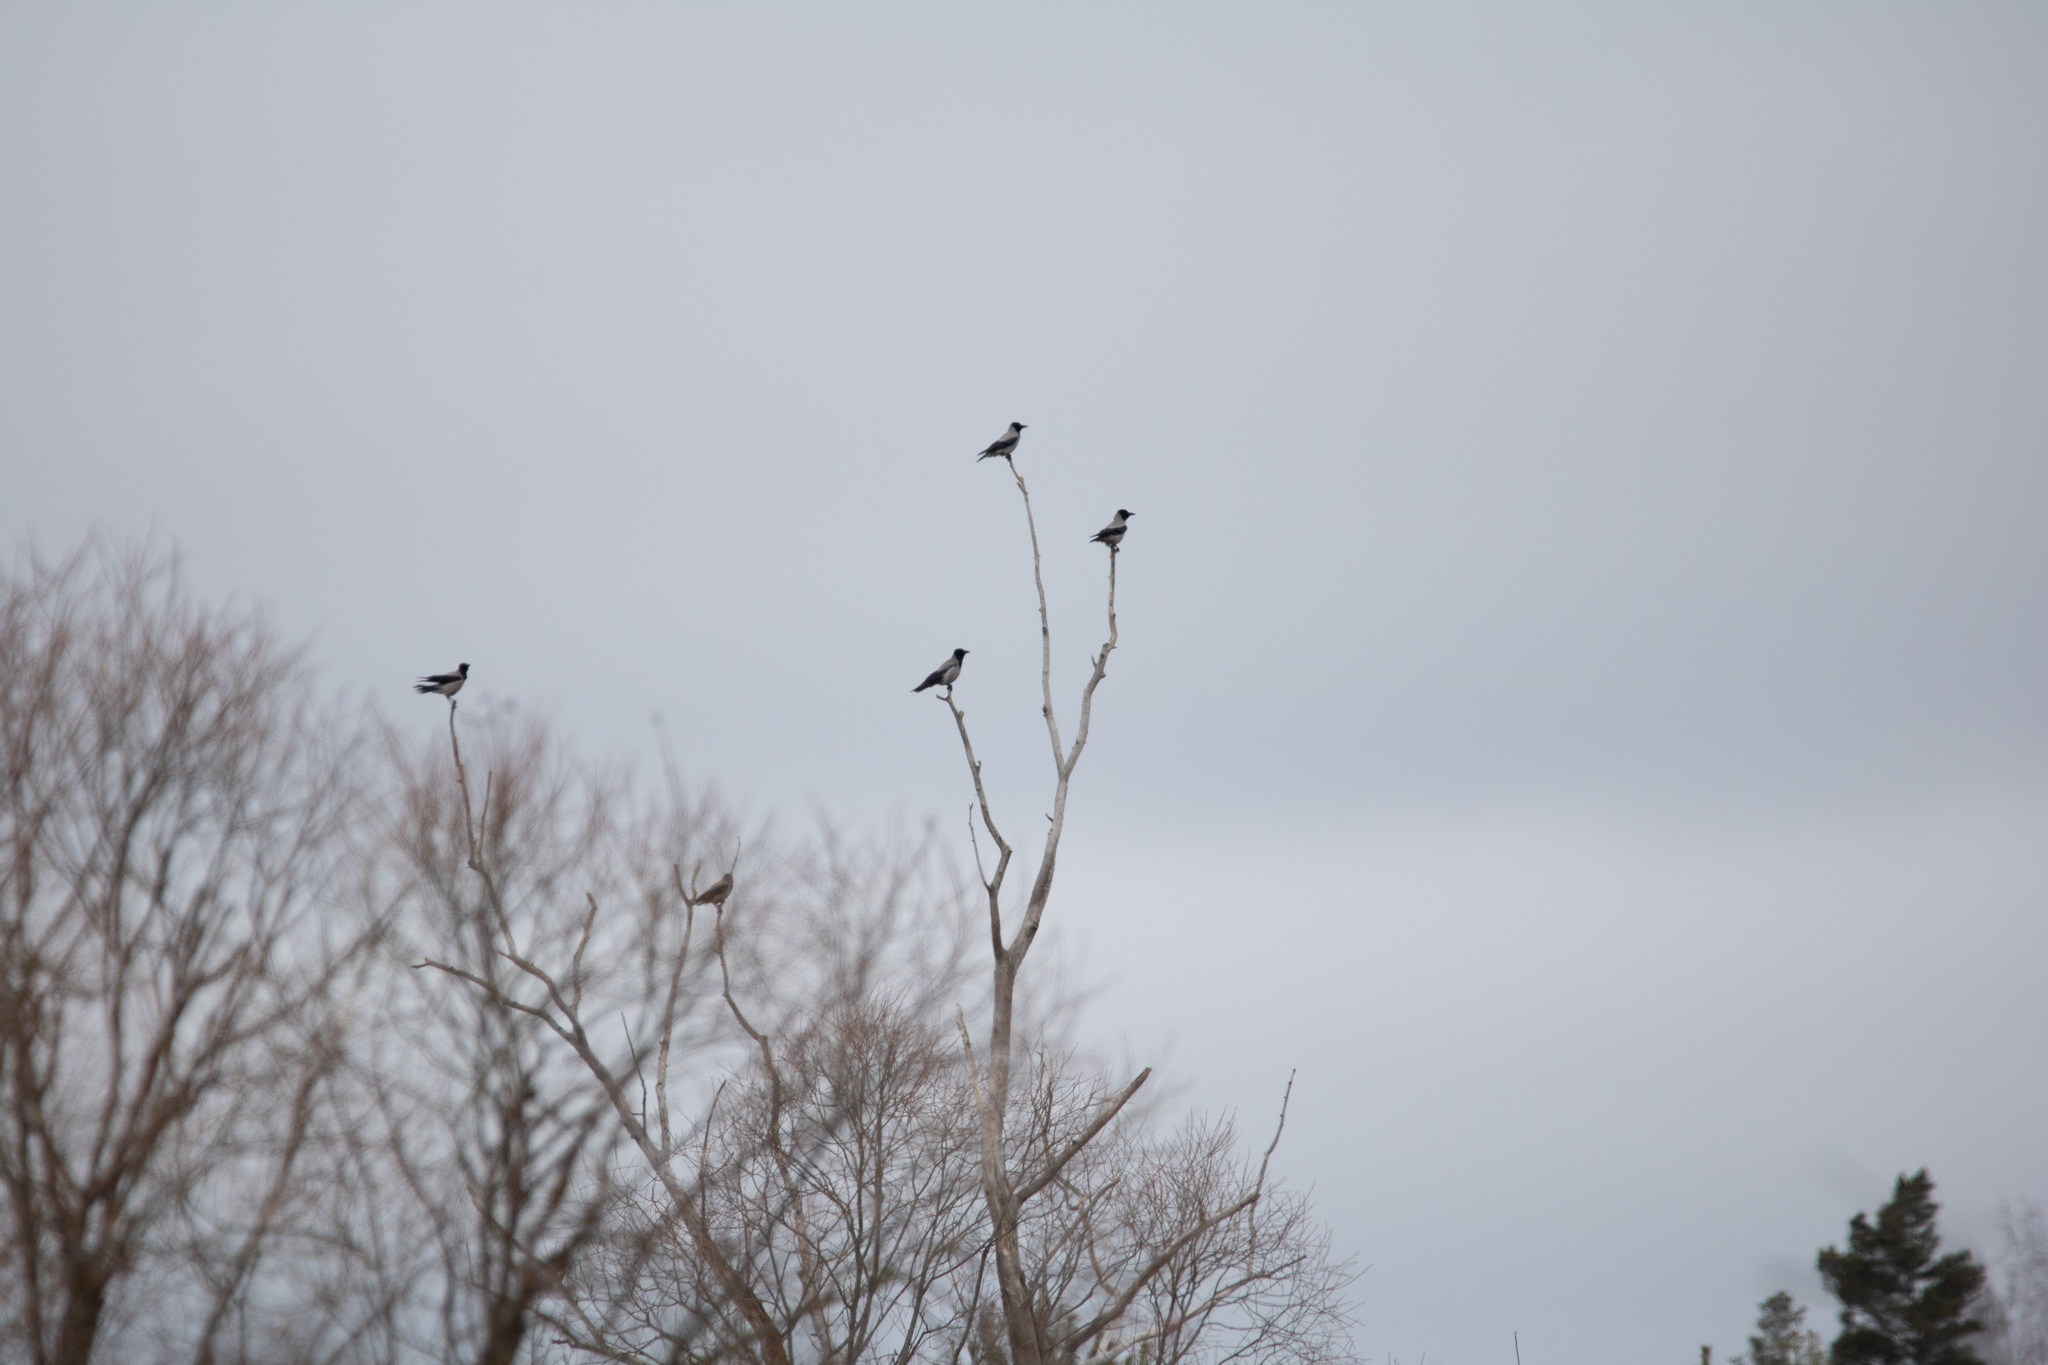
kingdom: Animalia
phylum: Chordata
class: Aves
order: Passeriformes
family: Corvidae
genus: Corvus
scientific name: Corvus cornix
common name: Hooded crow
